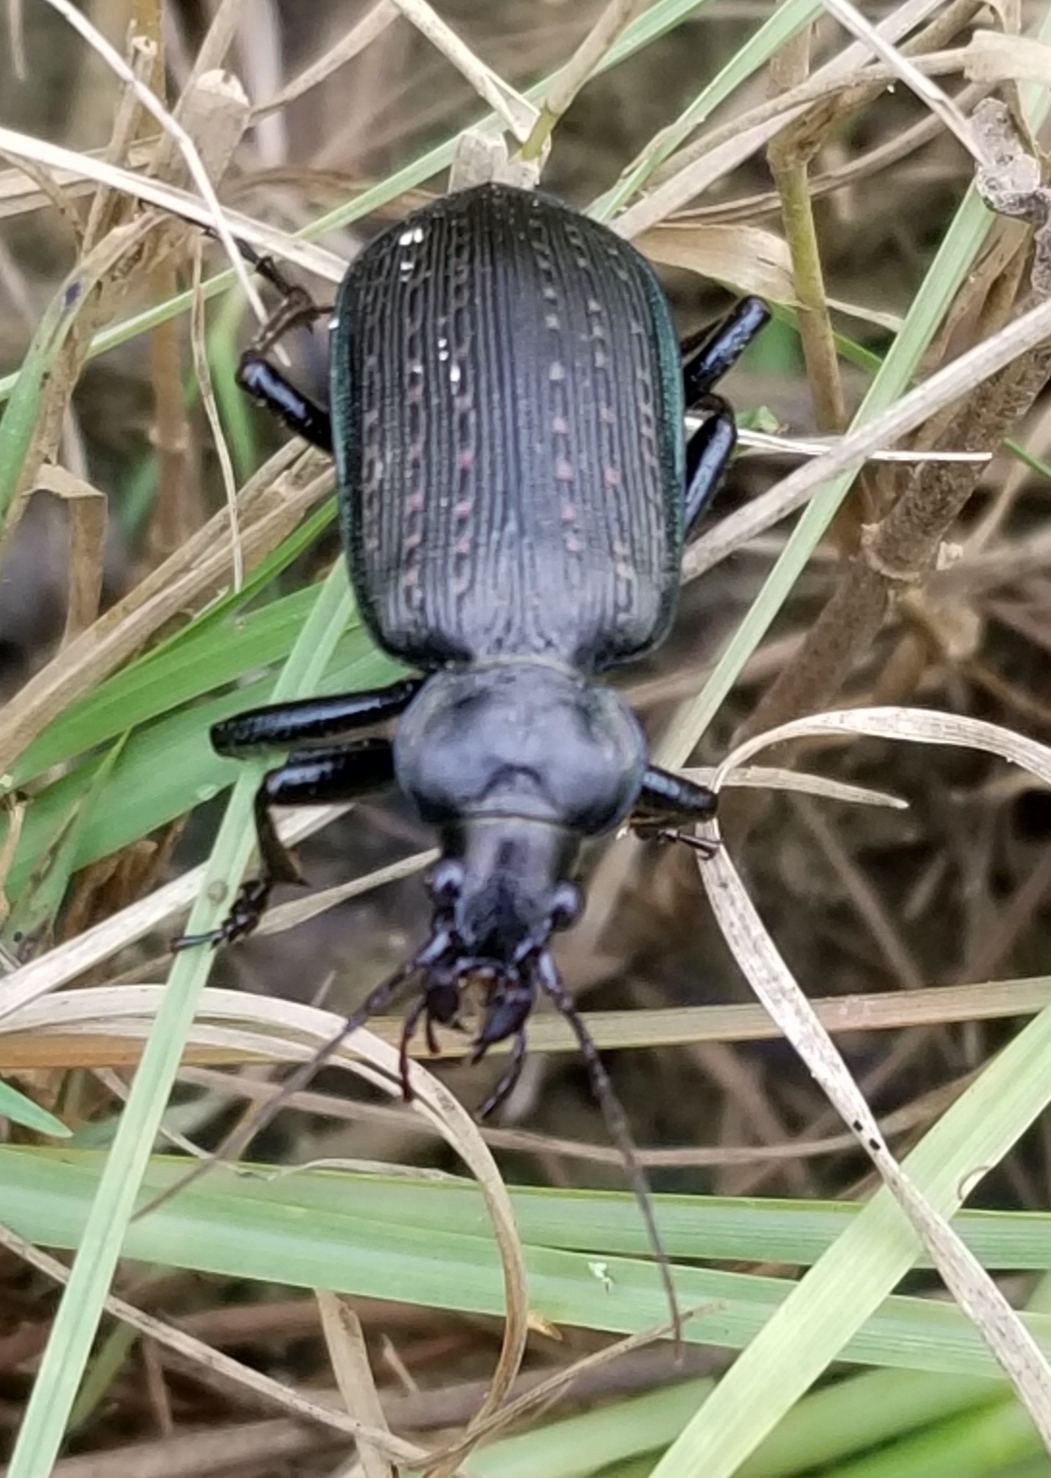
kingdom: Animalia
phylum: Arthropoda
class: Insecta
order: Coleoptera
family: Carabidae
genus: Calosoma
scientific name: Calosoma sayi
